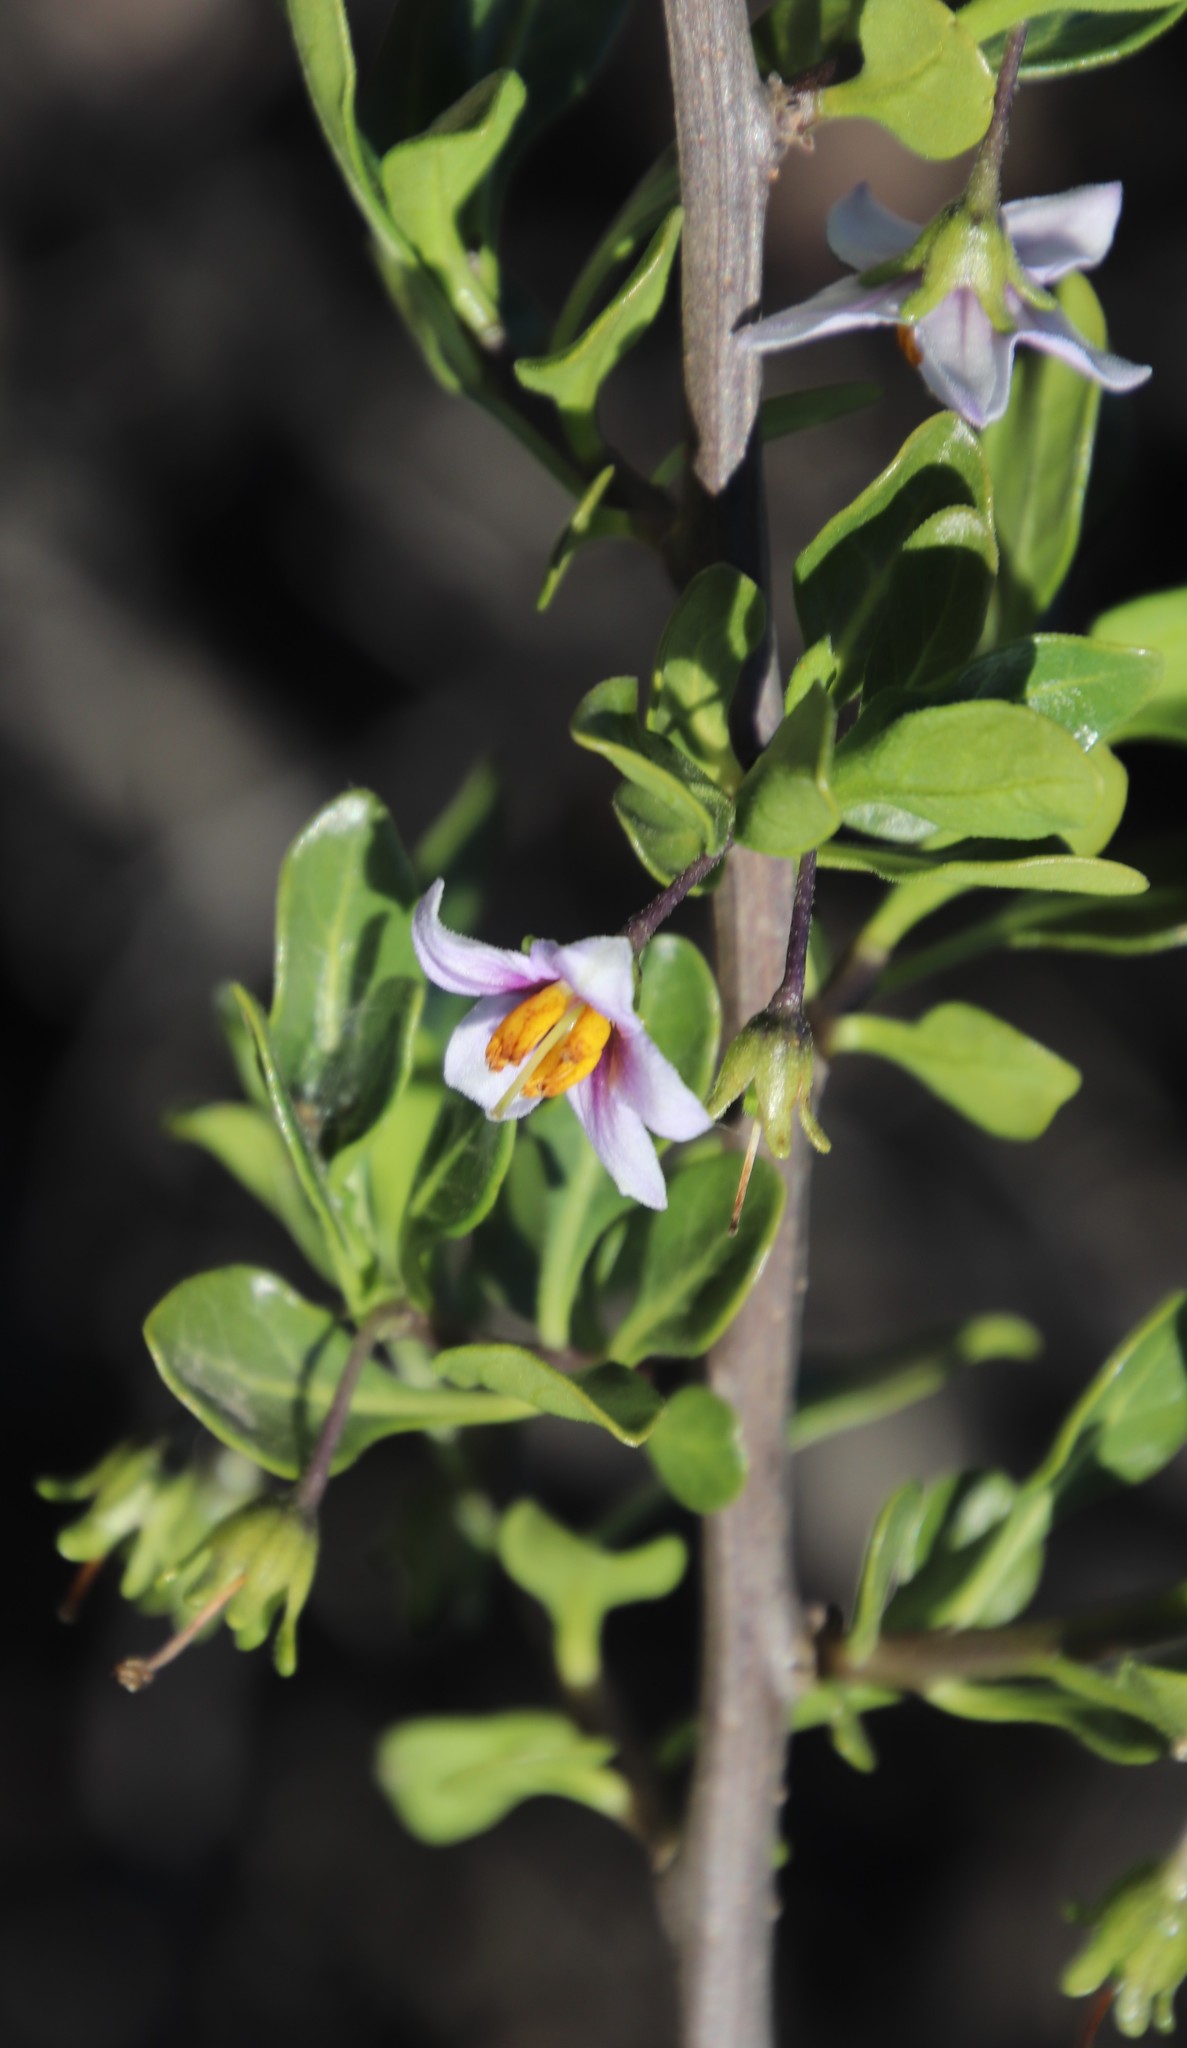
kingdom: Plantae
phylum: Tracheophyta
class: Magnoliopsida
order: Solanales
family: Solanaceae
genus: Solanum
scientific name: Solanum guineense
